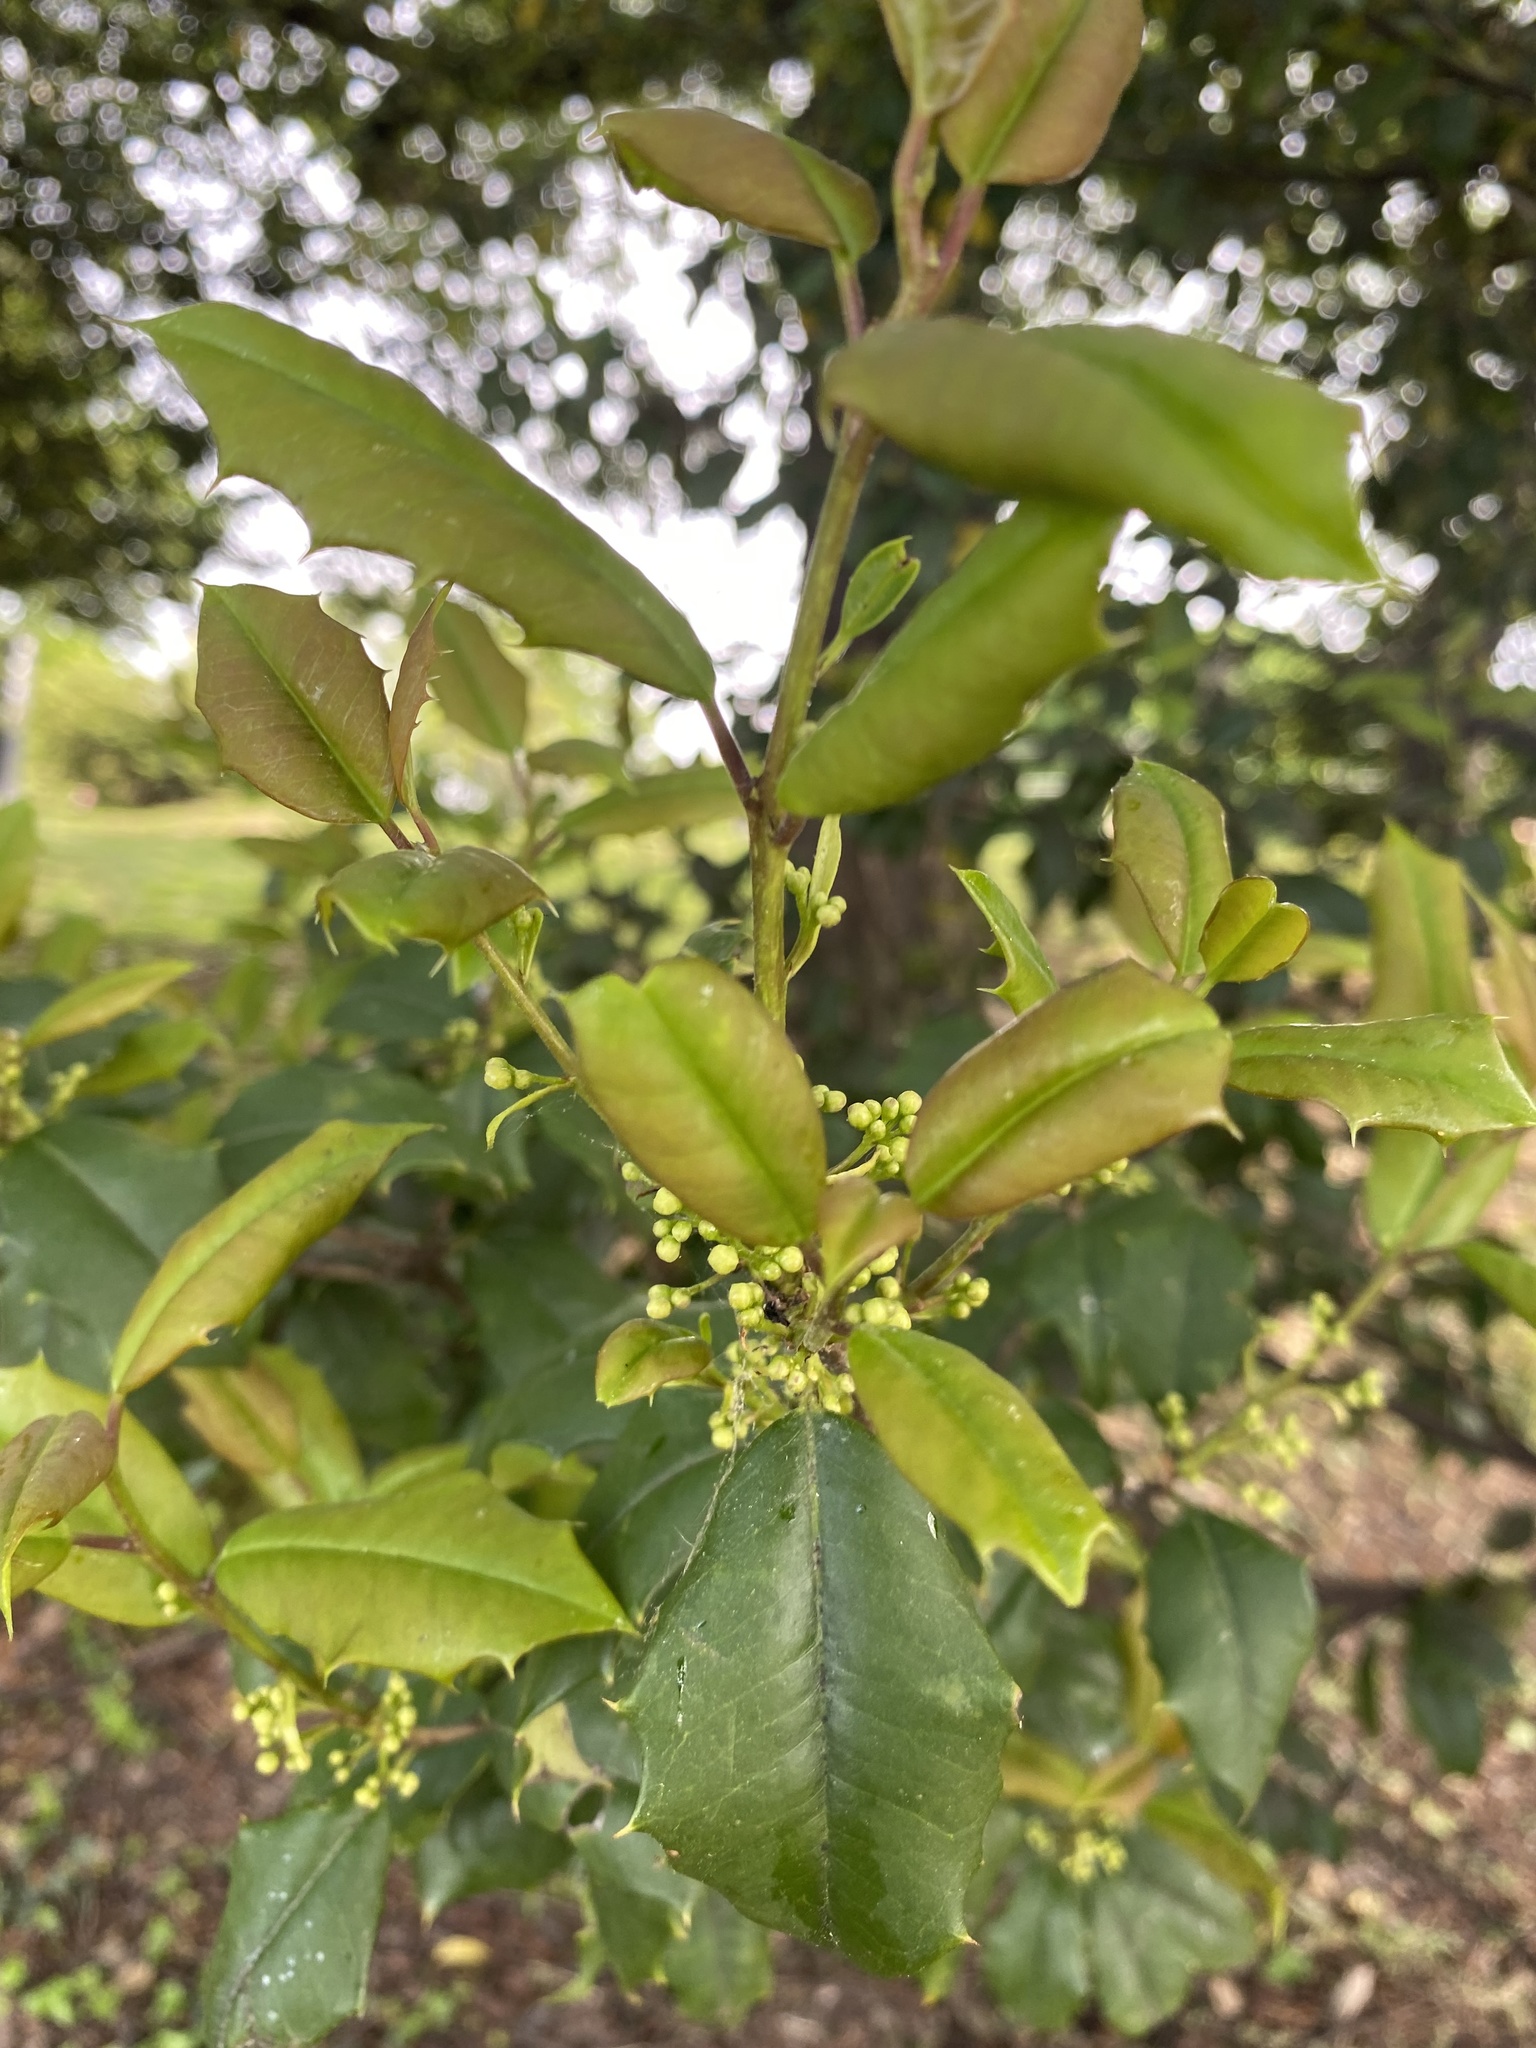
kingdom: Plantae
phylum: Tracheophyta
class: Magnoliopsida
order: Aquifoliales
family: Aquifoliaceae
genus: Ilex
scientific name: Ilex opaca
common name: American holly
